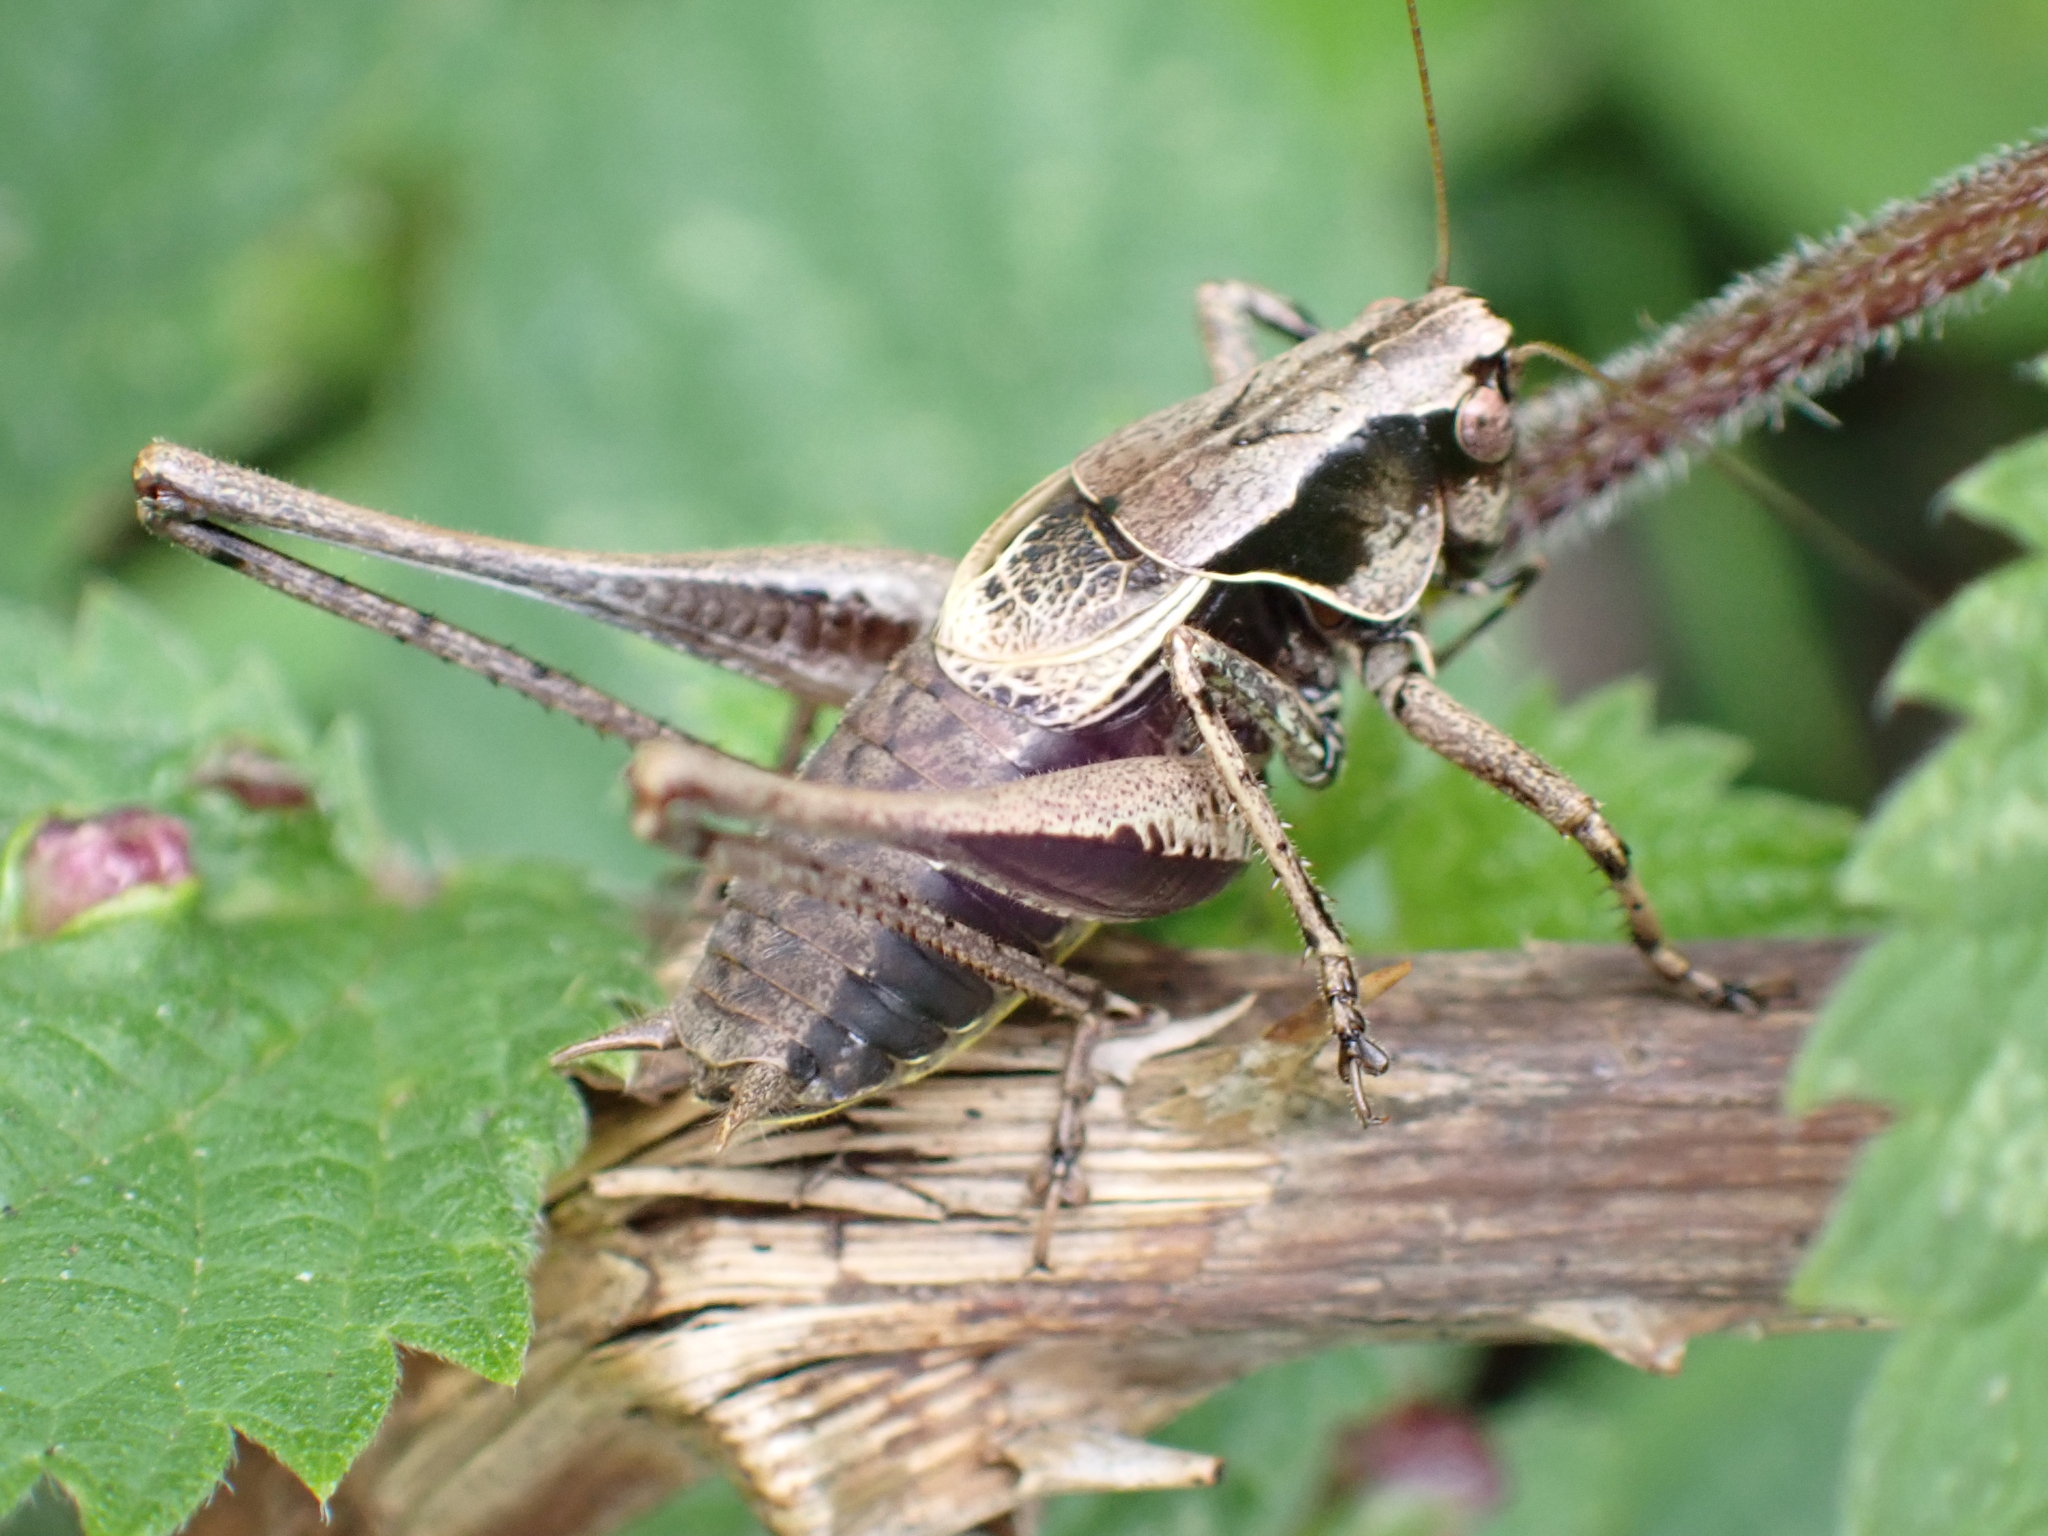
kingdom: Animalia
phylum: Arthropoda
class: Insecta
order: Orthoptera
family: Tettigoniidae
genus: Pholidoptera
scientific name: Pholidoptera griseoaptera
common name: Dark bush-cricket
